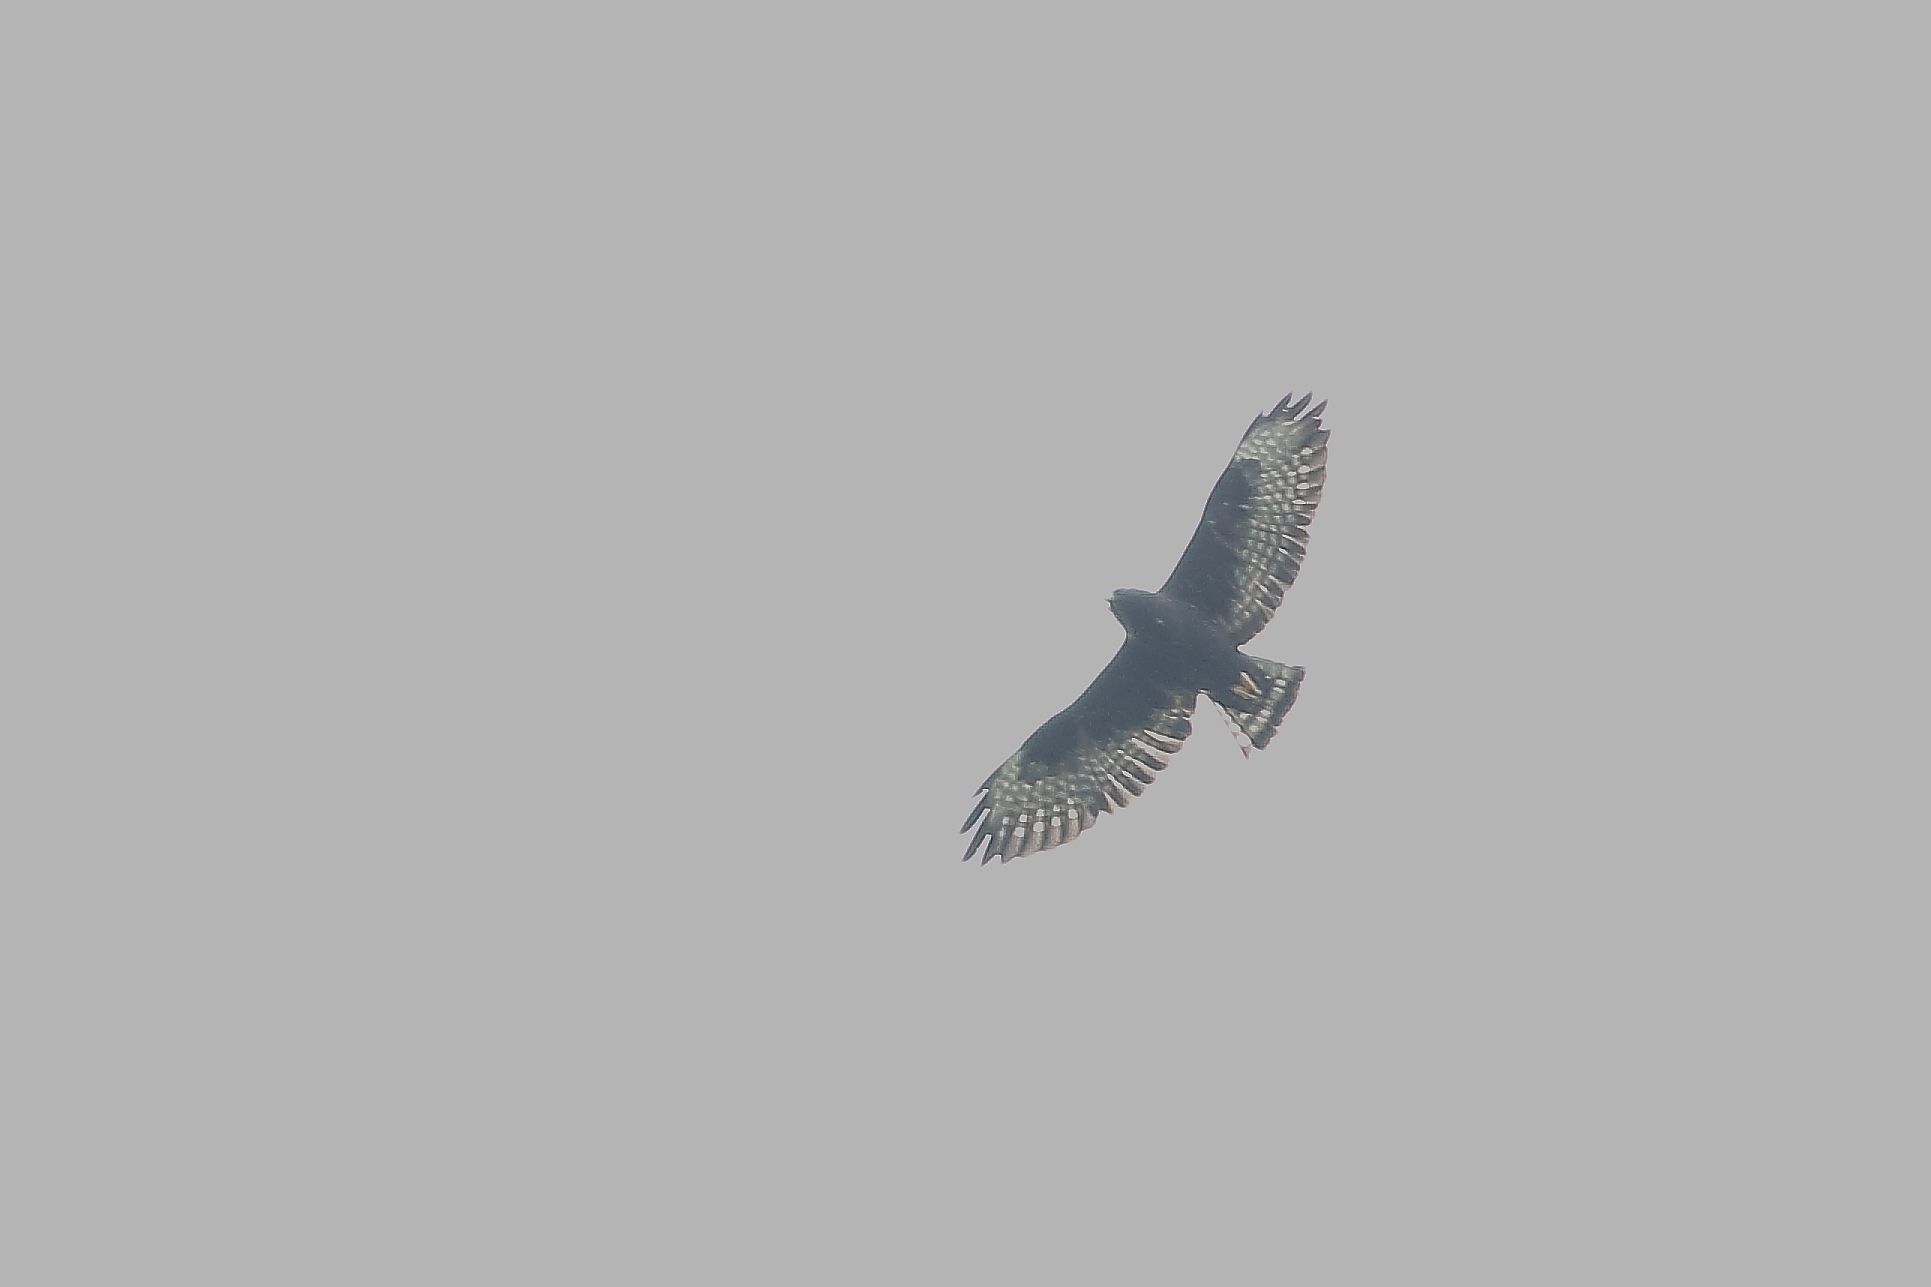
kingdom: Animalia
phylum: Chordata
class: Aves
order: Accipitriformes
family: Accipitridae
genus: Buteo
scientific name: Buteo brachyurus
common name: Short-tailed hawk
